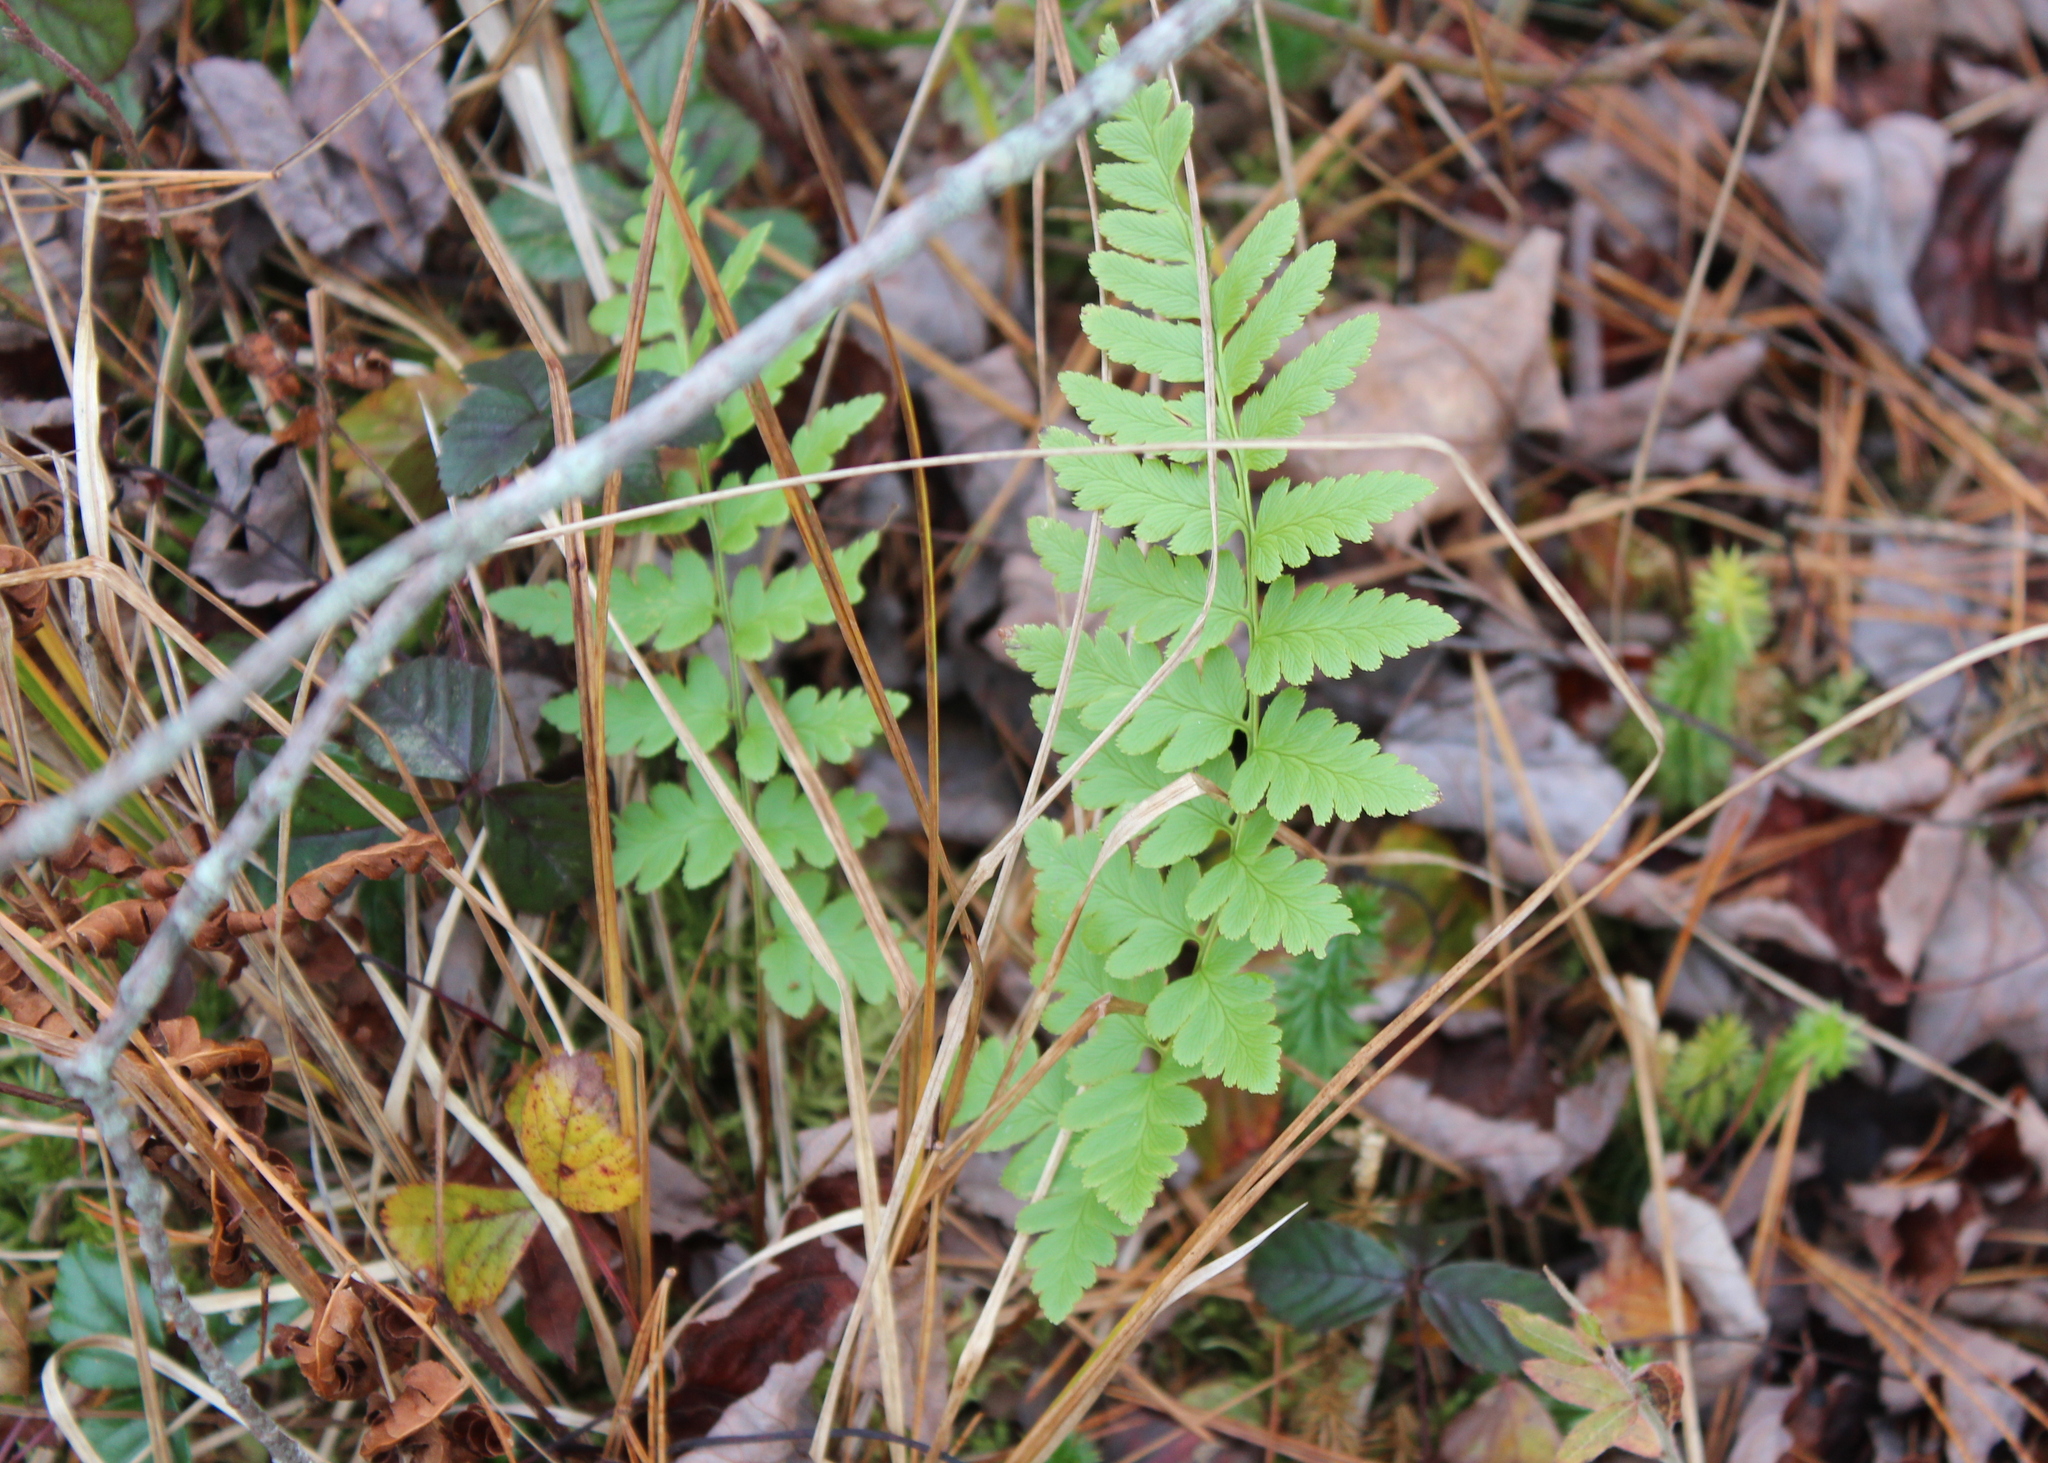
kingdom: Plantae
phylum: Tracheophyta
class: Polypodiopsida
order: Polypodiales
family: Dryopteridaceae
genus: Dryopteris
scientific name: Dryopteris cristata
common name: Crested wood fern
